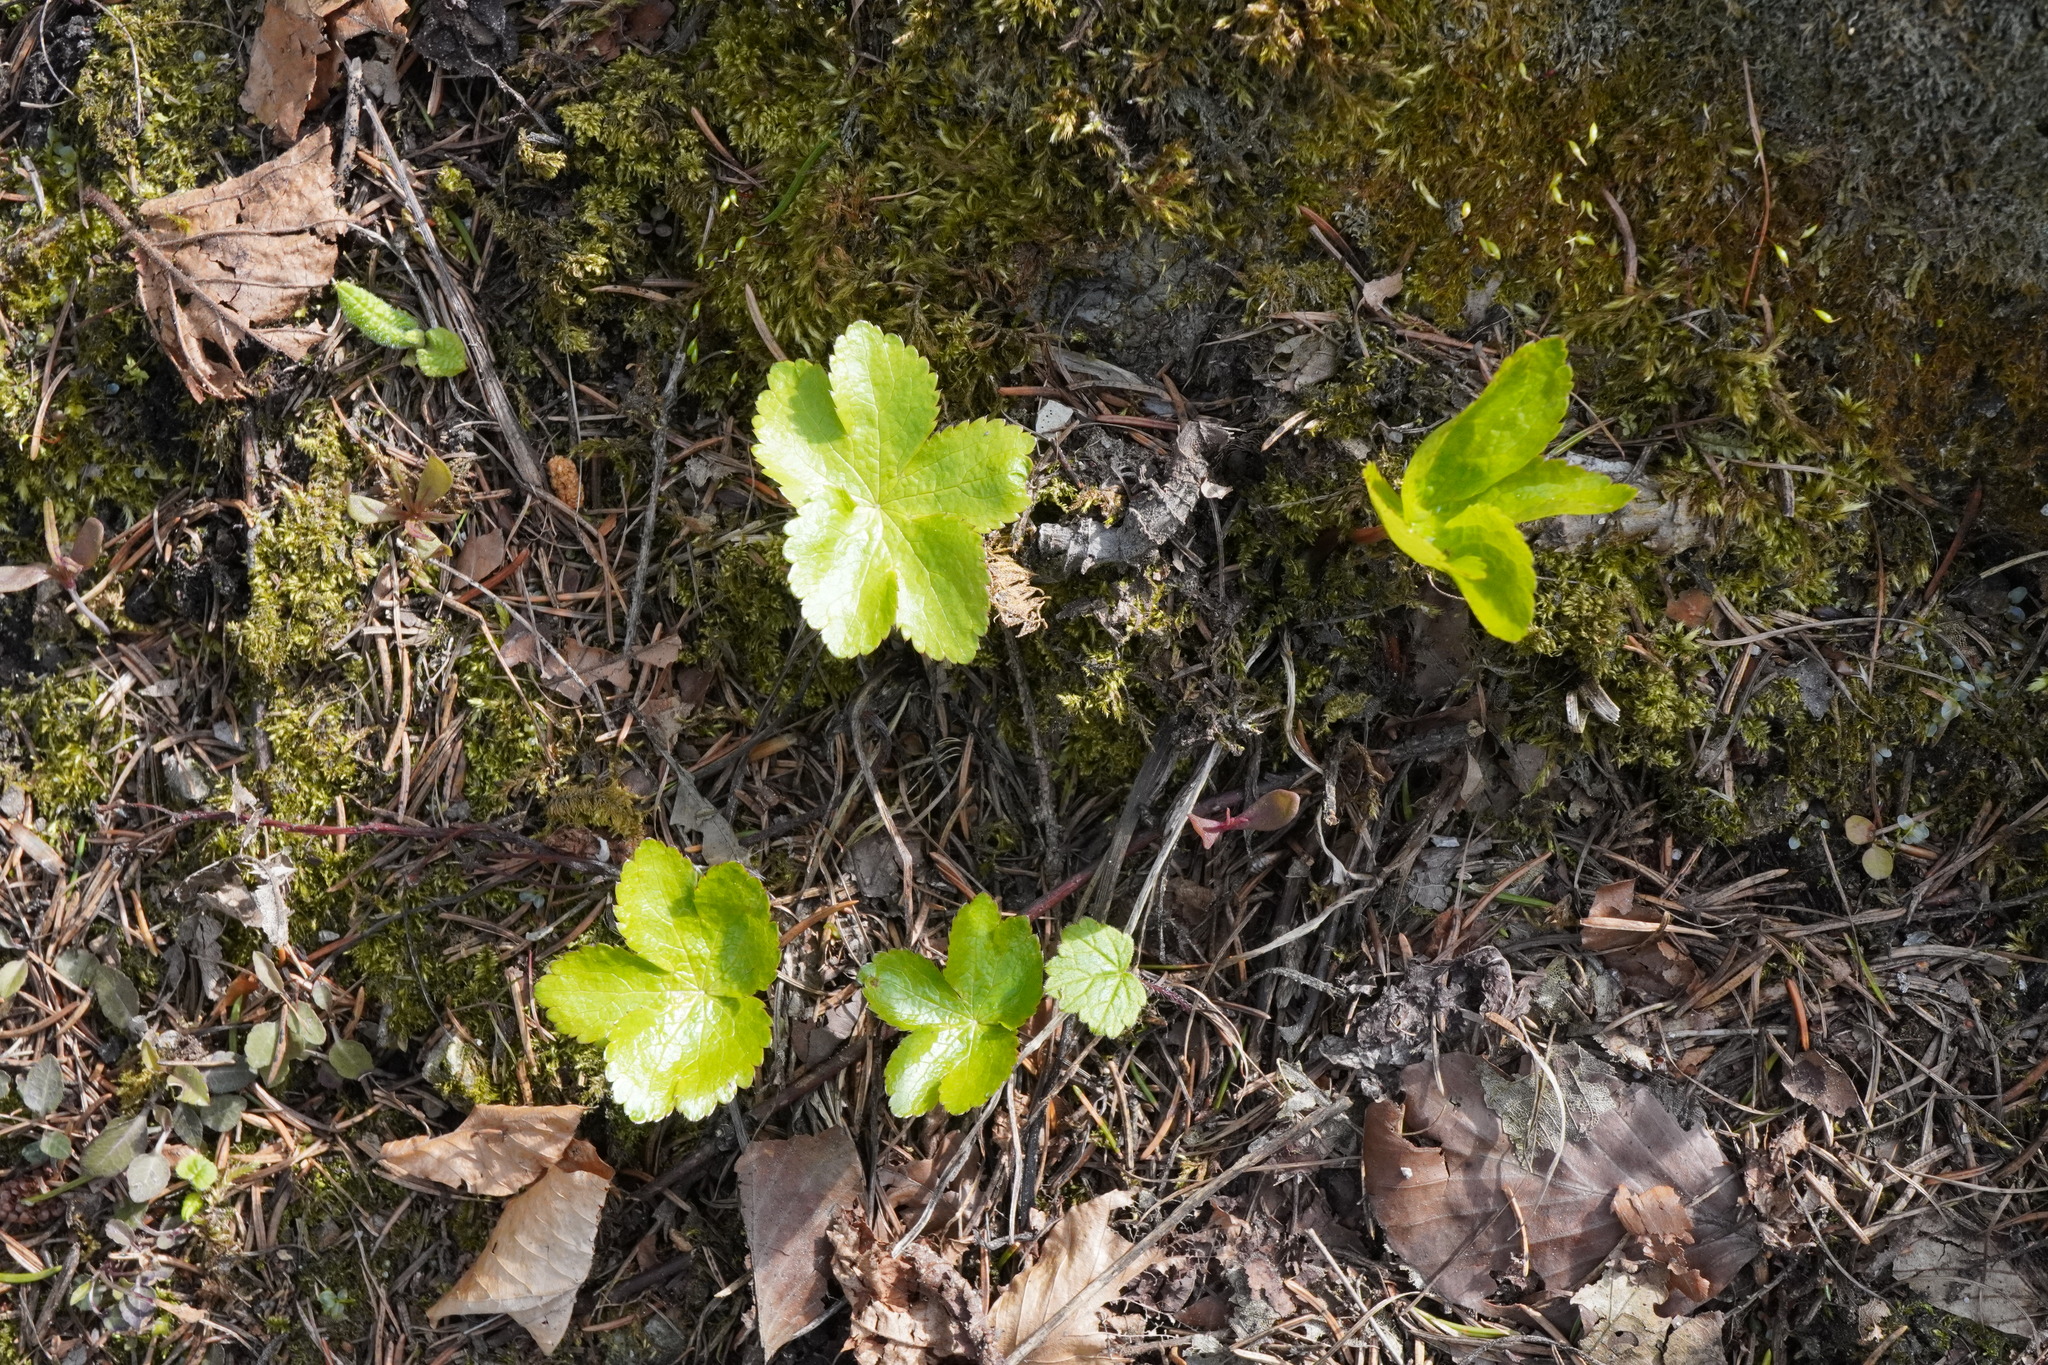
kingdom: Plantae
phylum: Tracheophyta
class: Magnoliopsida
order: Apiales
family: Apiaceae
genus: Sanicula
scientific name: Sanicula europaea
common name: Sanicle
